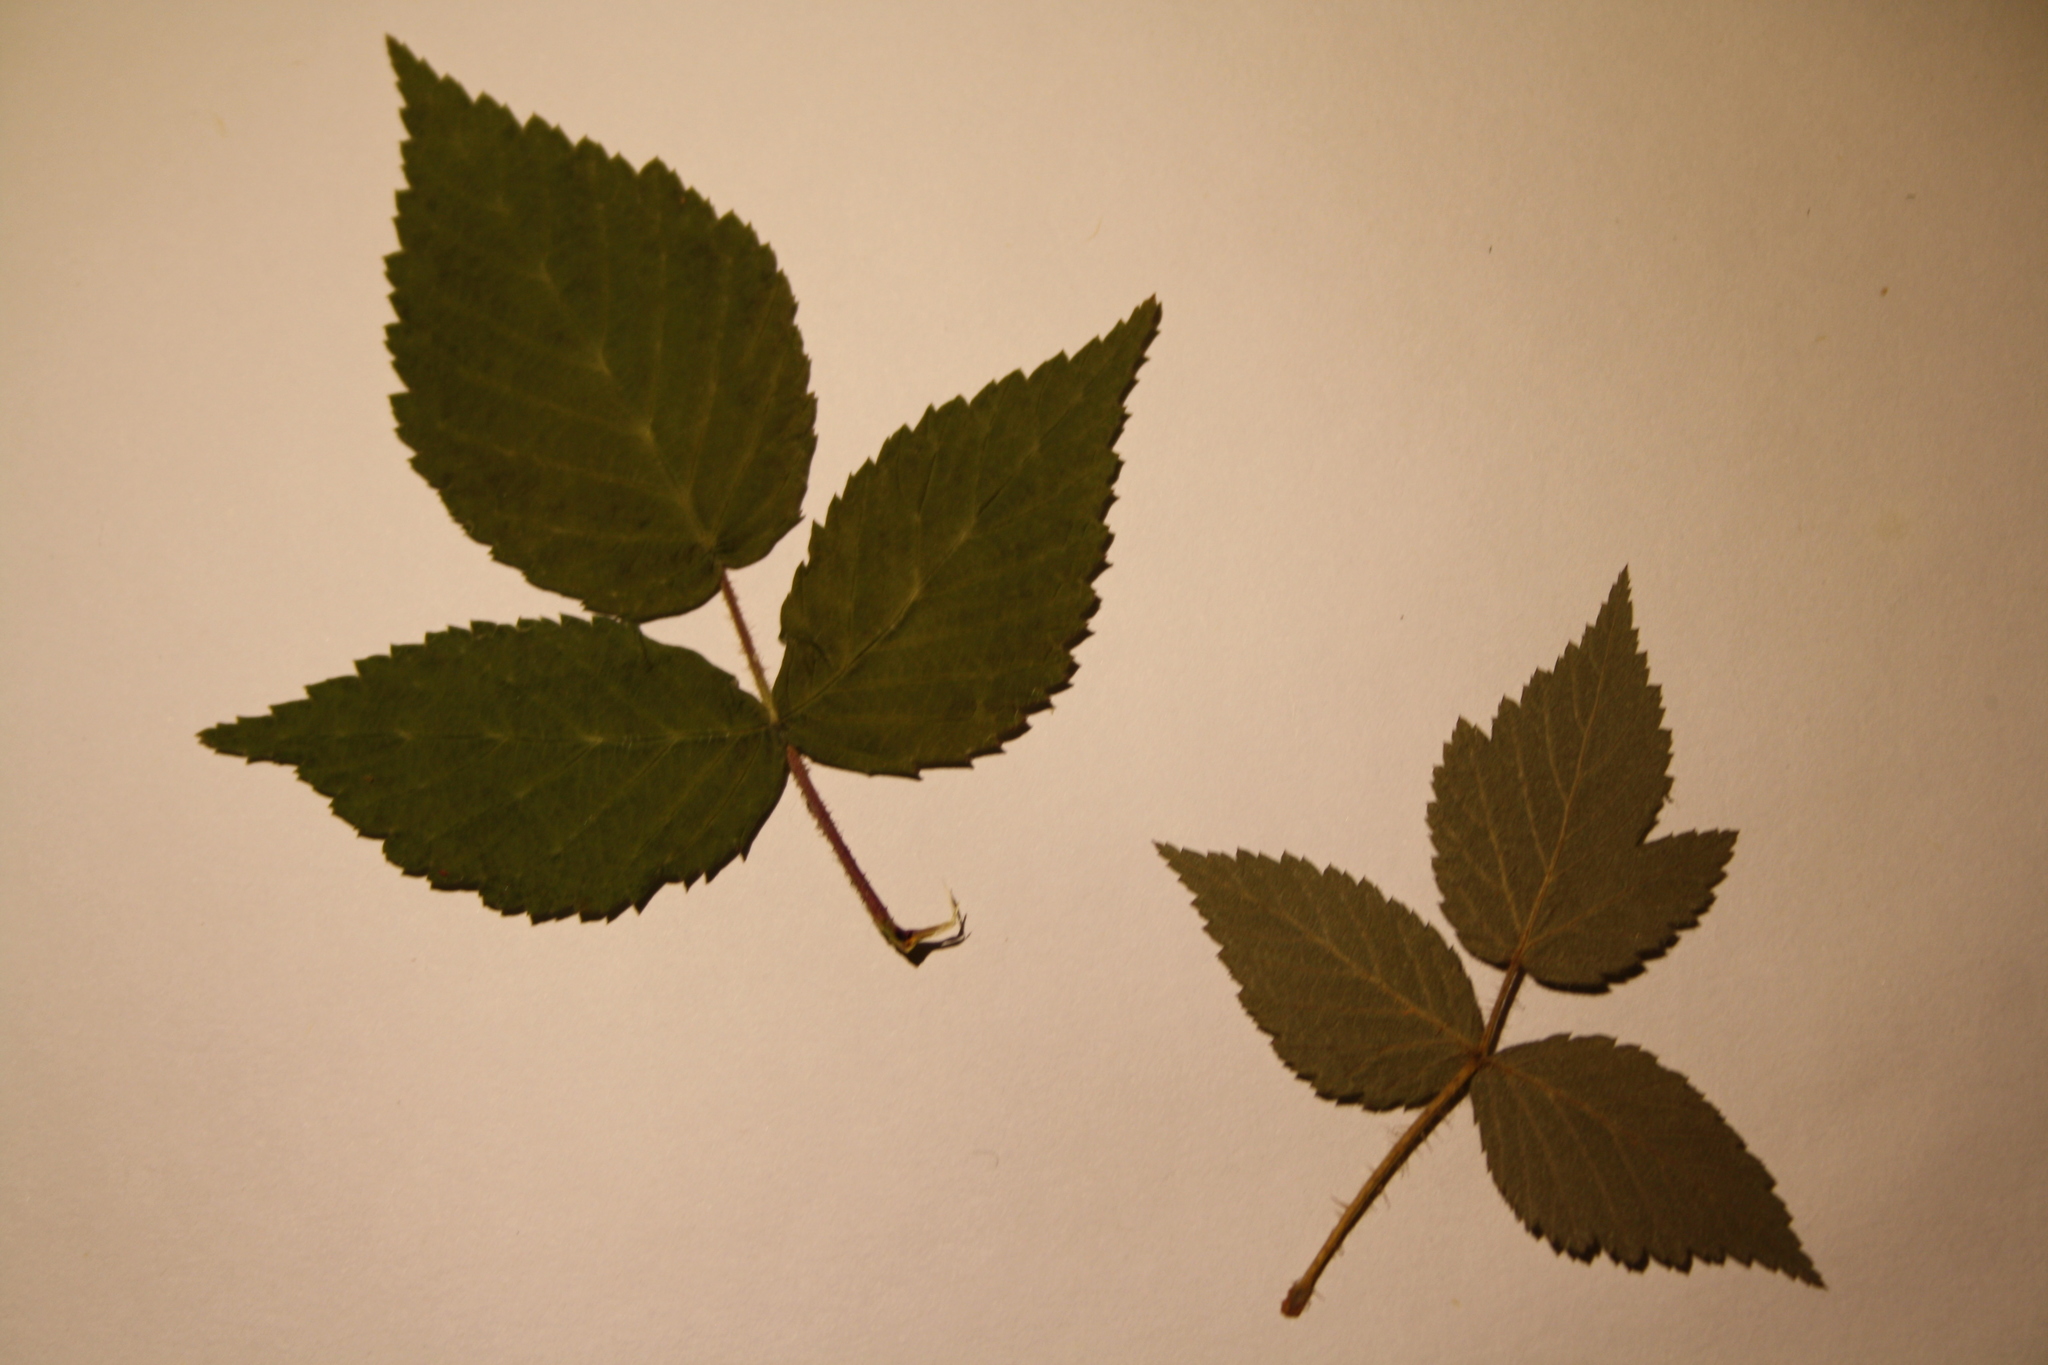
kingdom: Plantae
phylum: Tracheophyta
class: Magnoliopsida
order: Rosales
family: Rosaceae
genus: Rubus
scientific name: Rubus idaeus
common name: Raspberry
